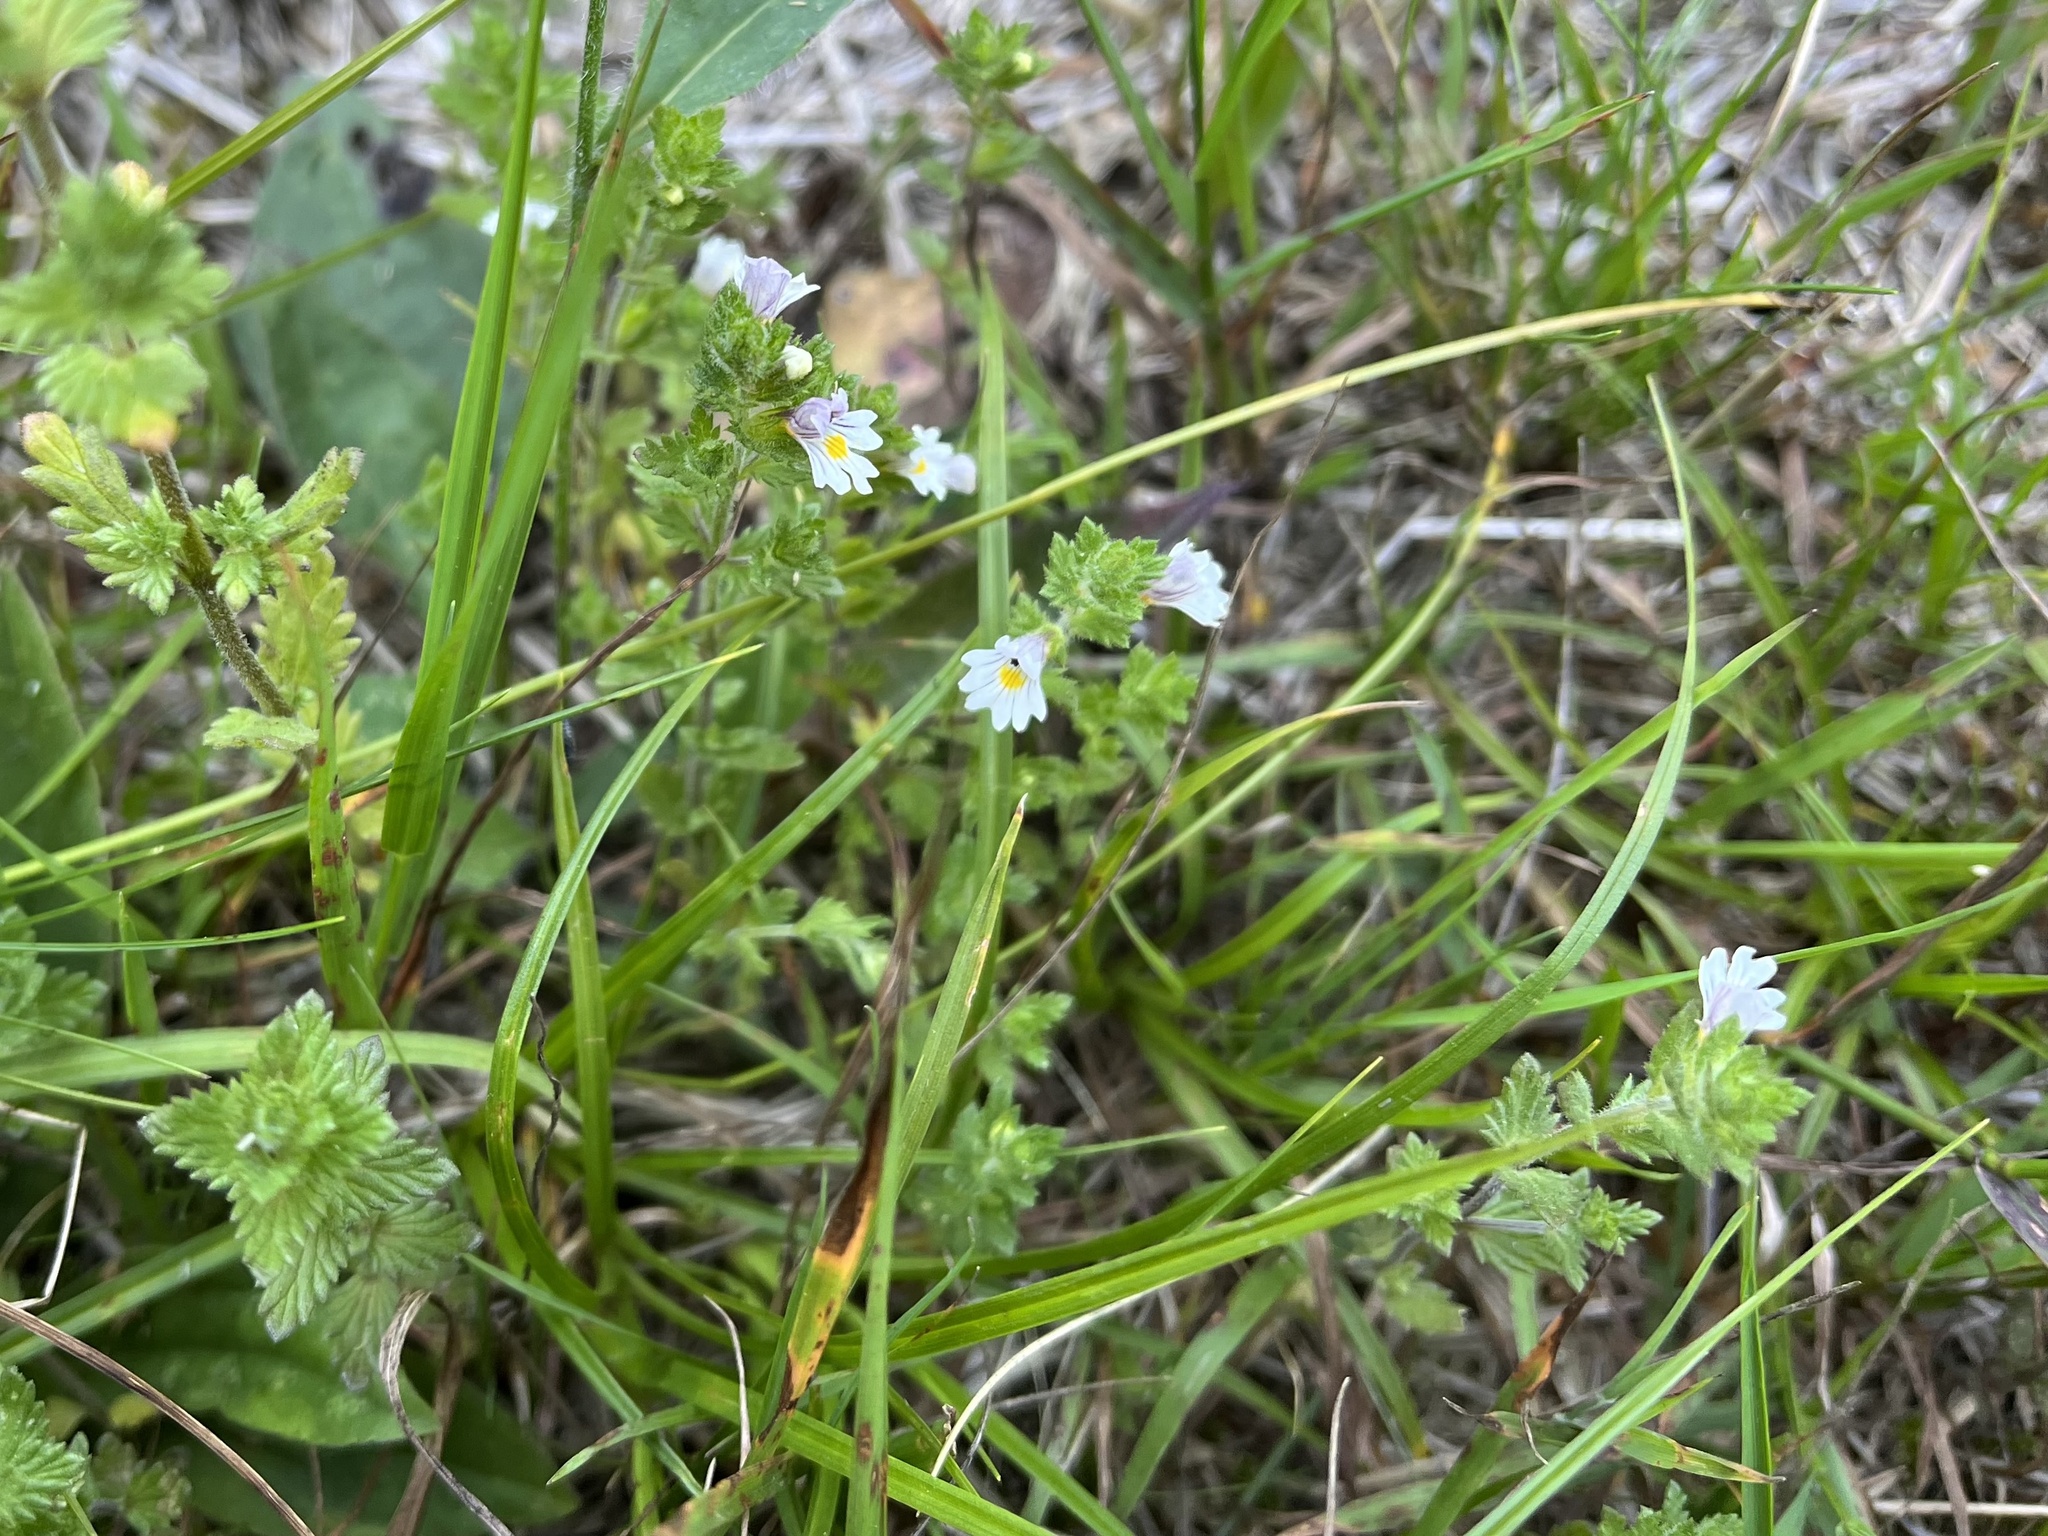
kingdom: Plantae
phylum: Tracheophyta
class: Magnoliopsida
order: Lamiales
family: Orobanchaceae
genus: Euphrasia
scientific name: Euphrasia officinalis
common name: Eyebright
